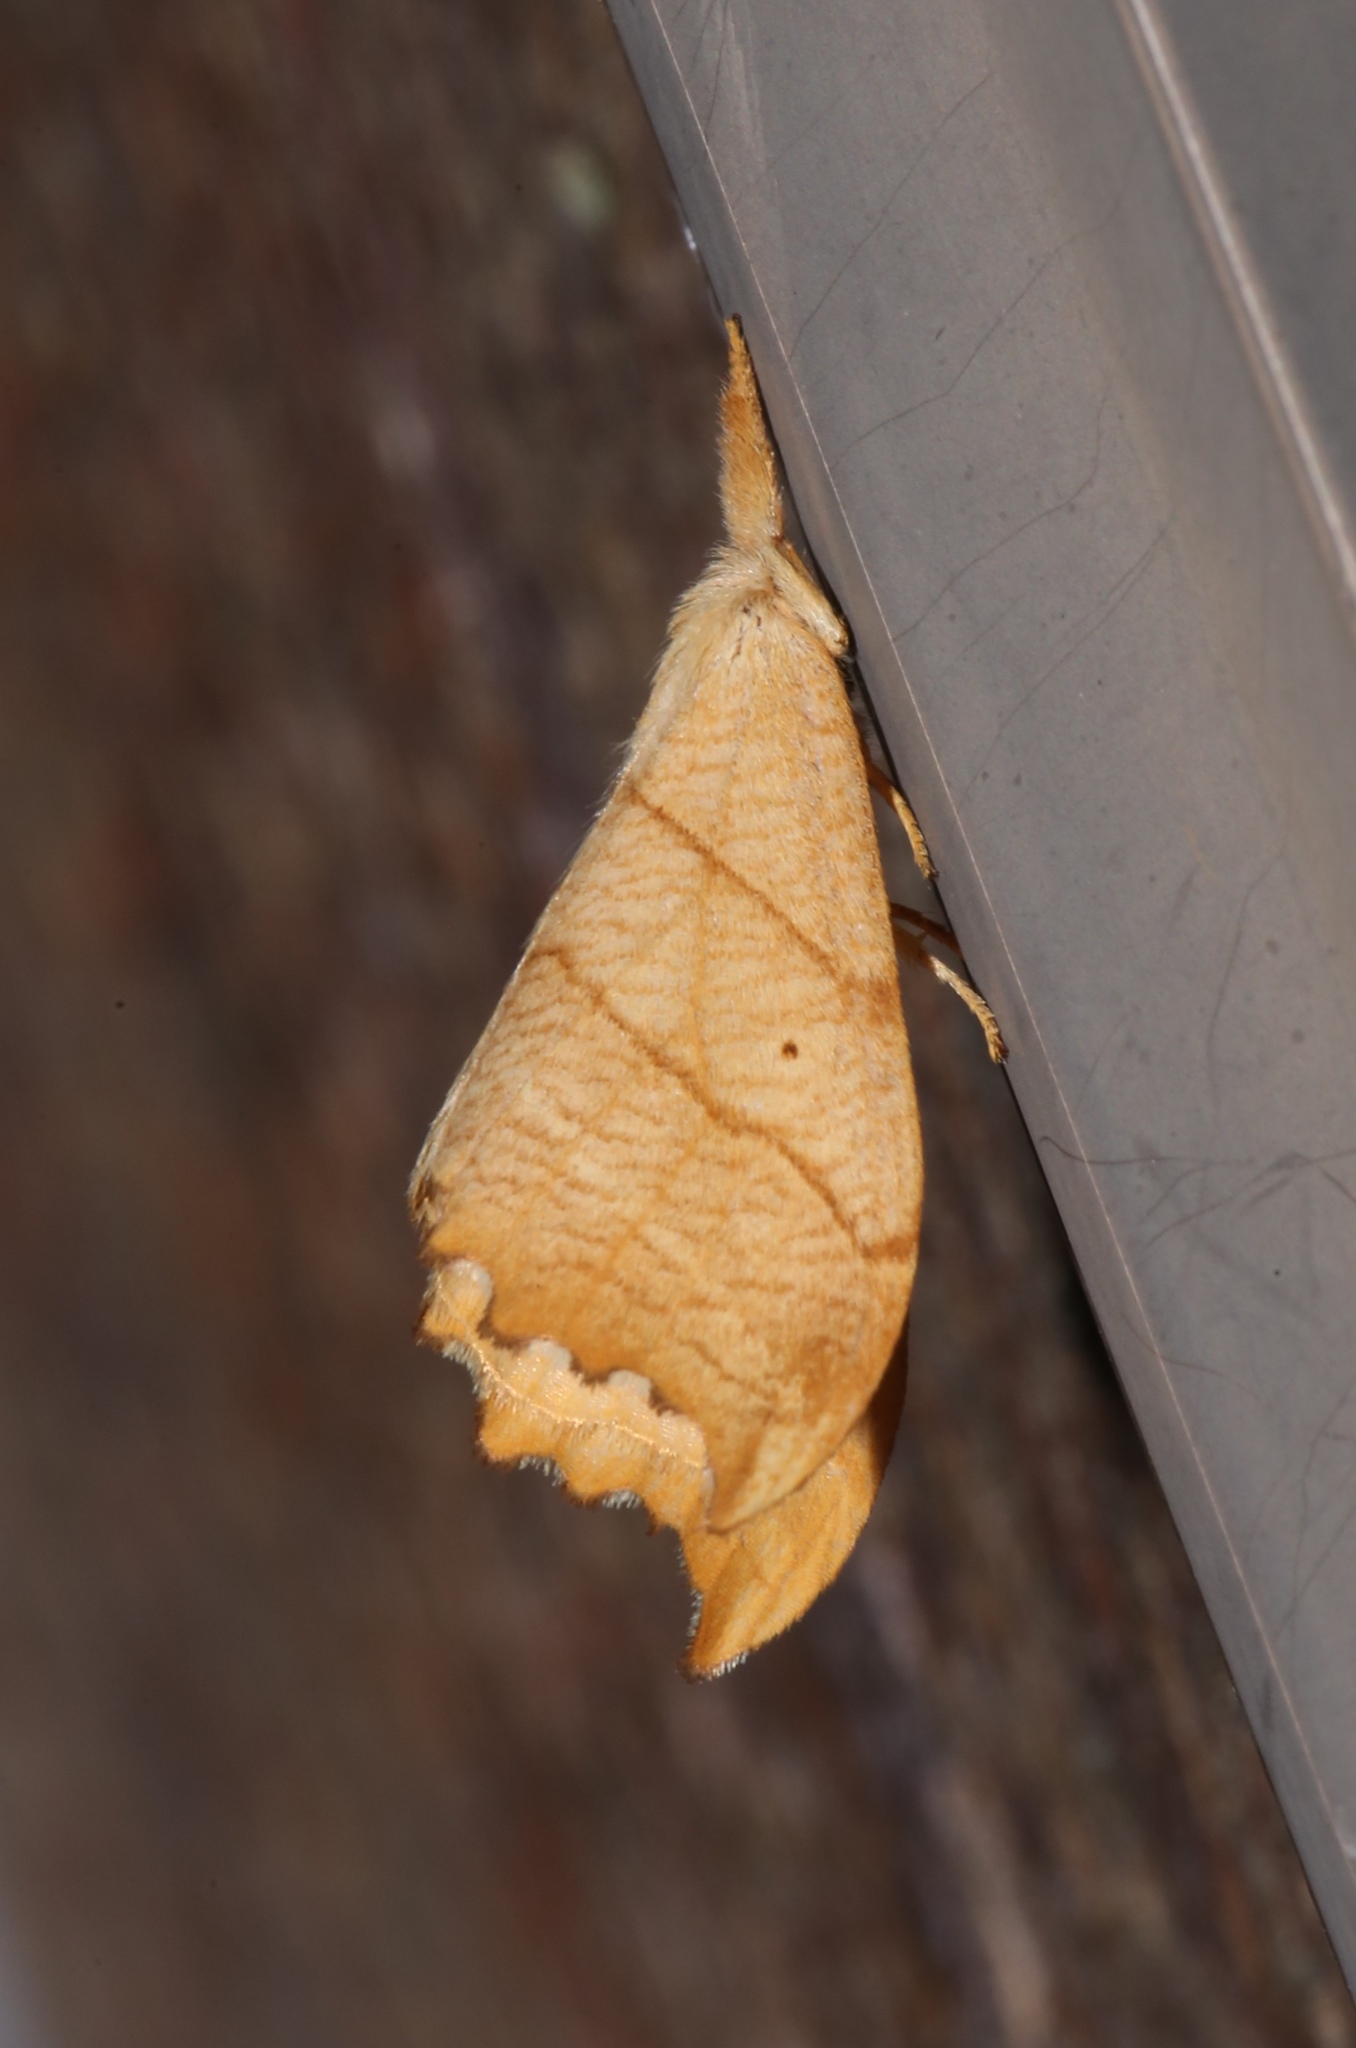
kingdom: Animalia
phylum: Arthropoda
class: Insecta
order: Lepidoptera
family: Drepanidae
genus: Falcaria
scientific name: Falcaria bilineata
